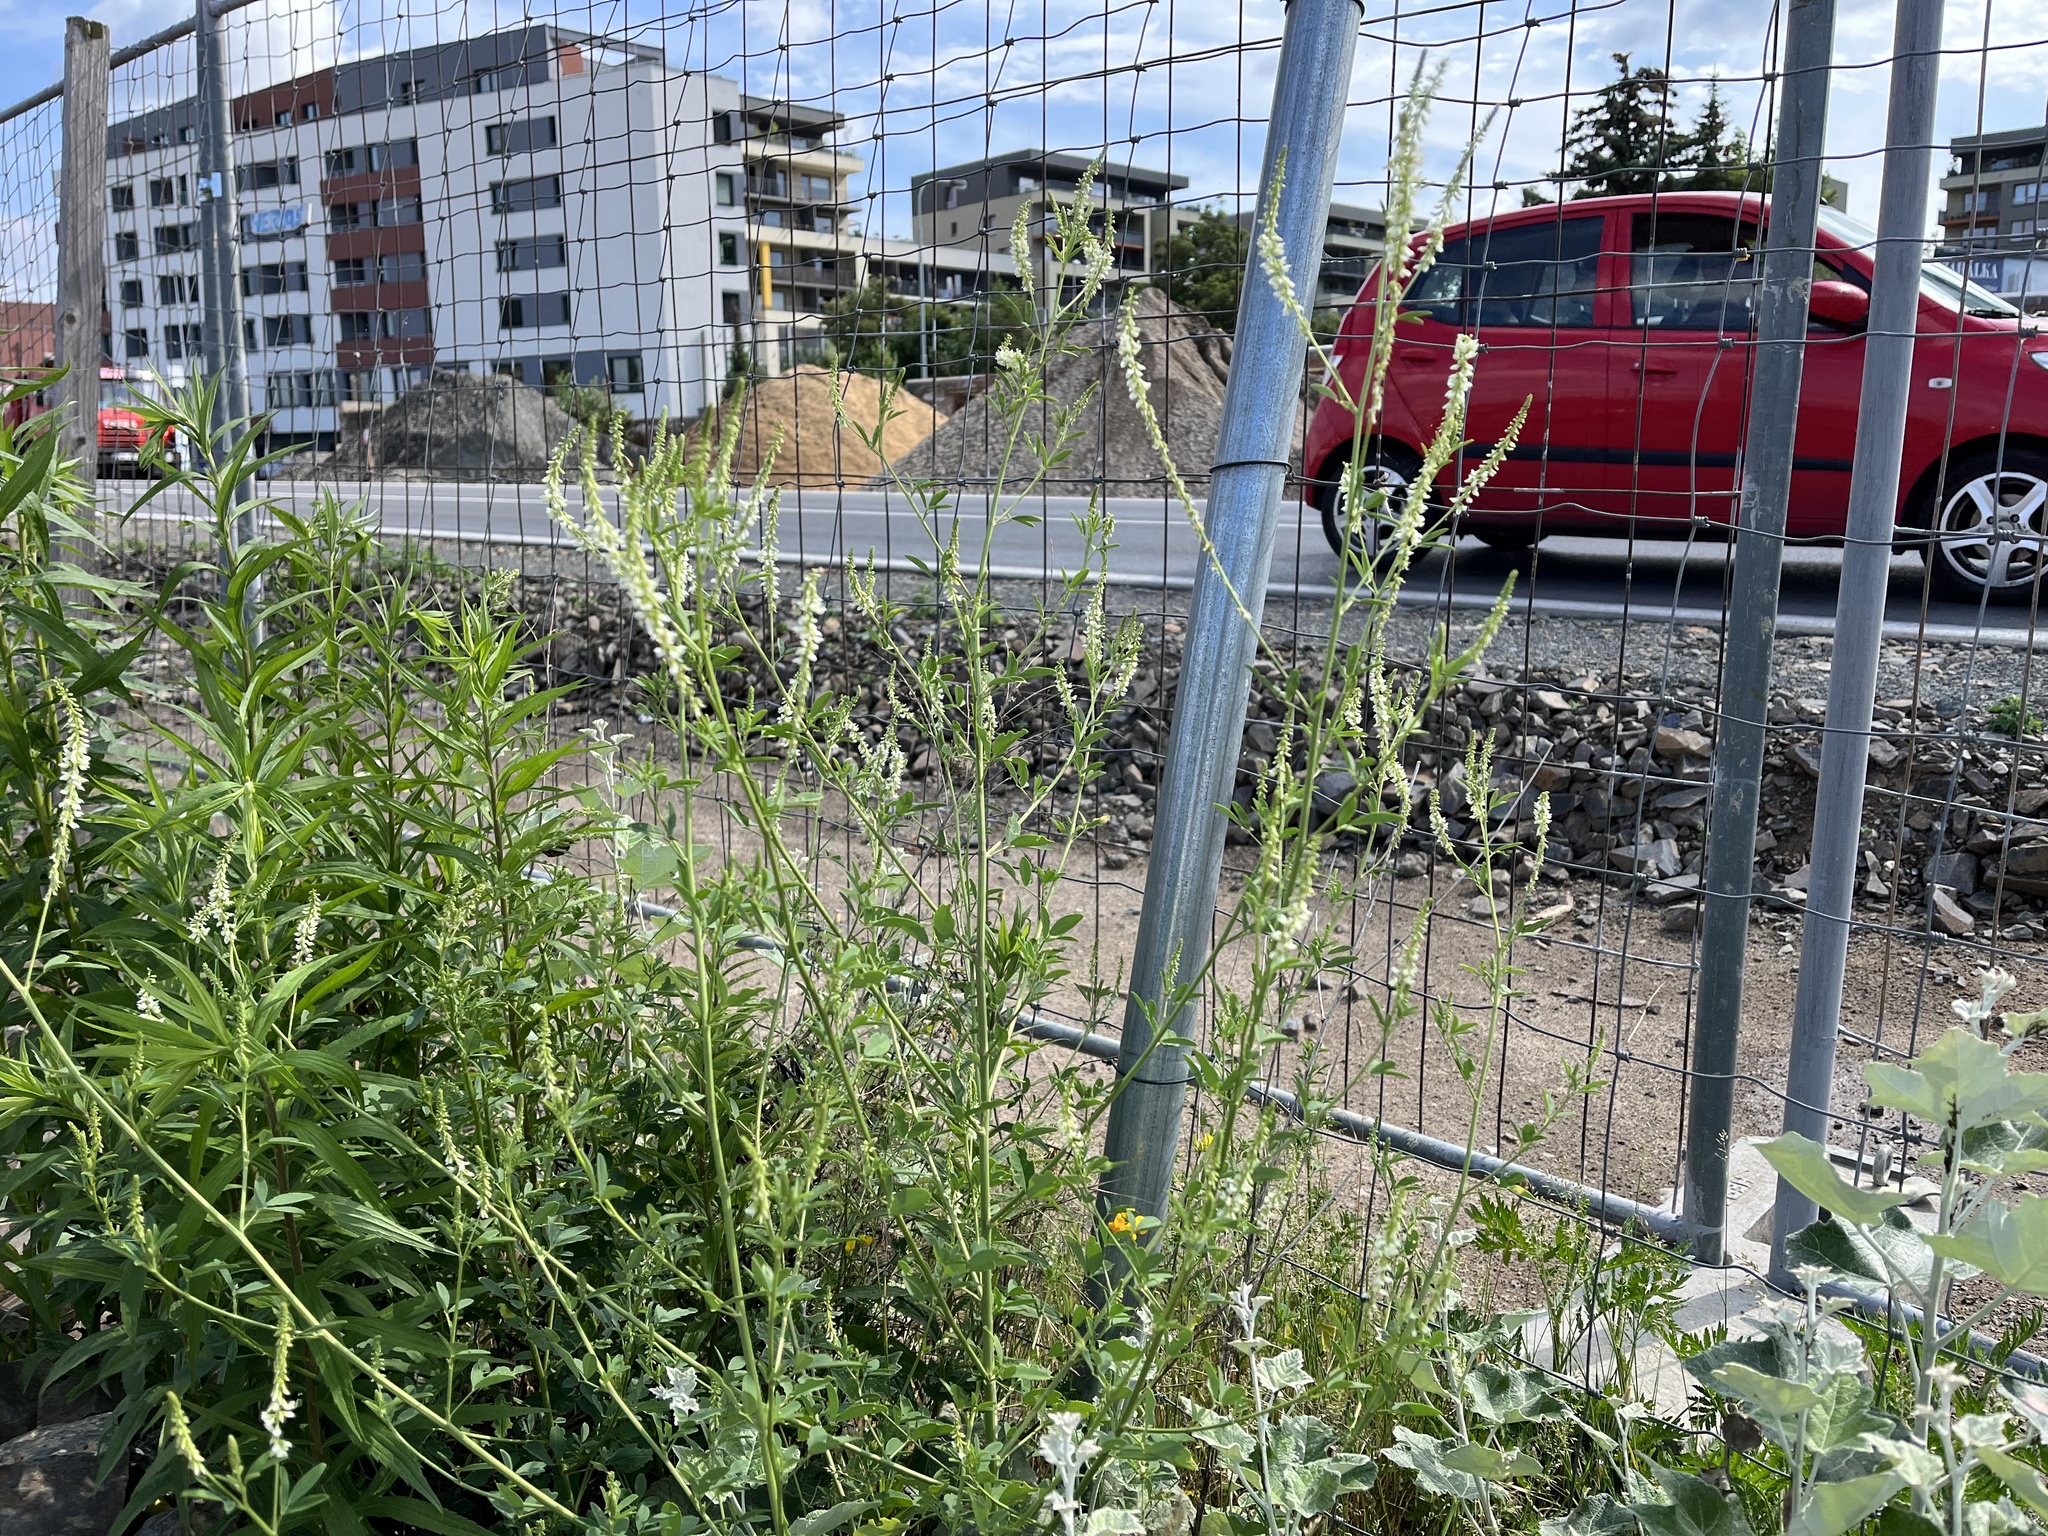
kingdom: Plantae
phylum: Tracheophyta
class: Magnoliopsida
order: Fabales
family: Fabaceae
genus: Melilotus
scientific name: Melilotus albus
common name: White melilot
